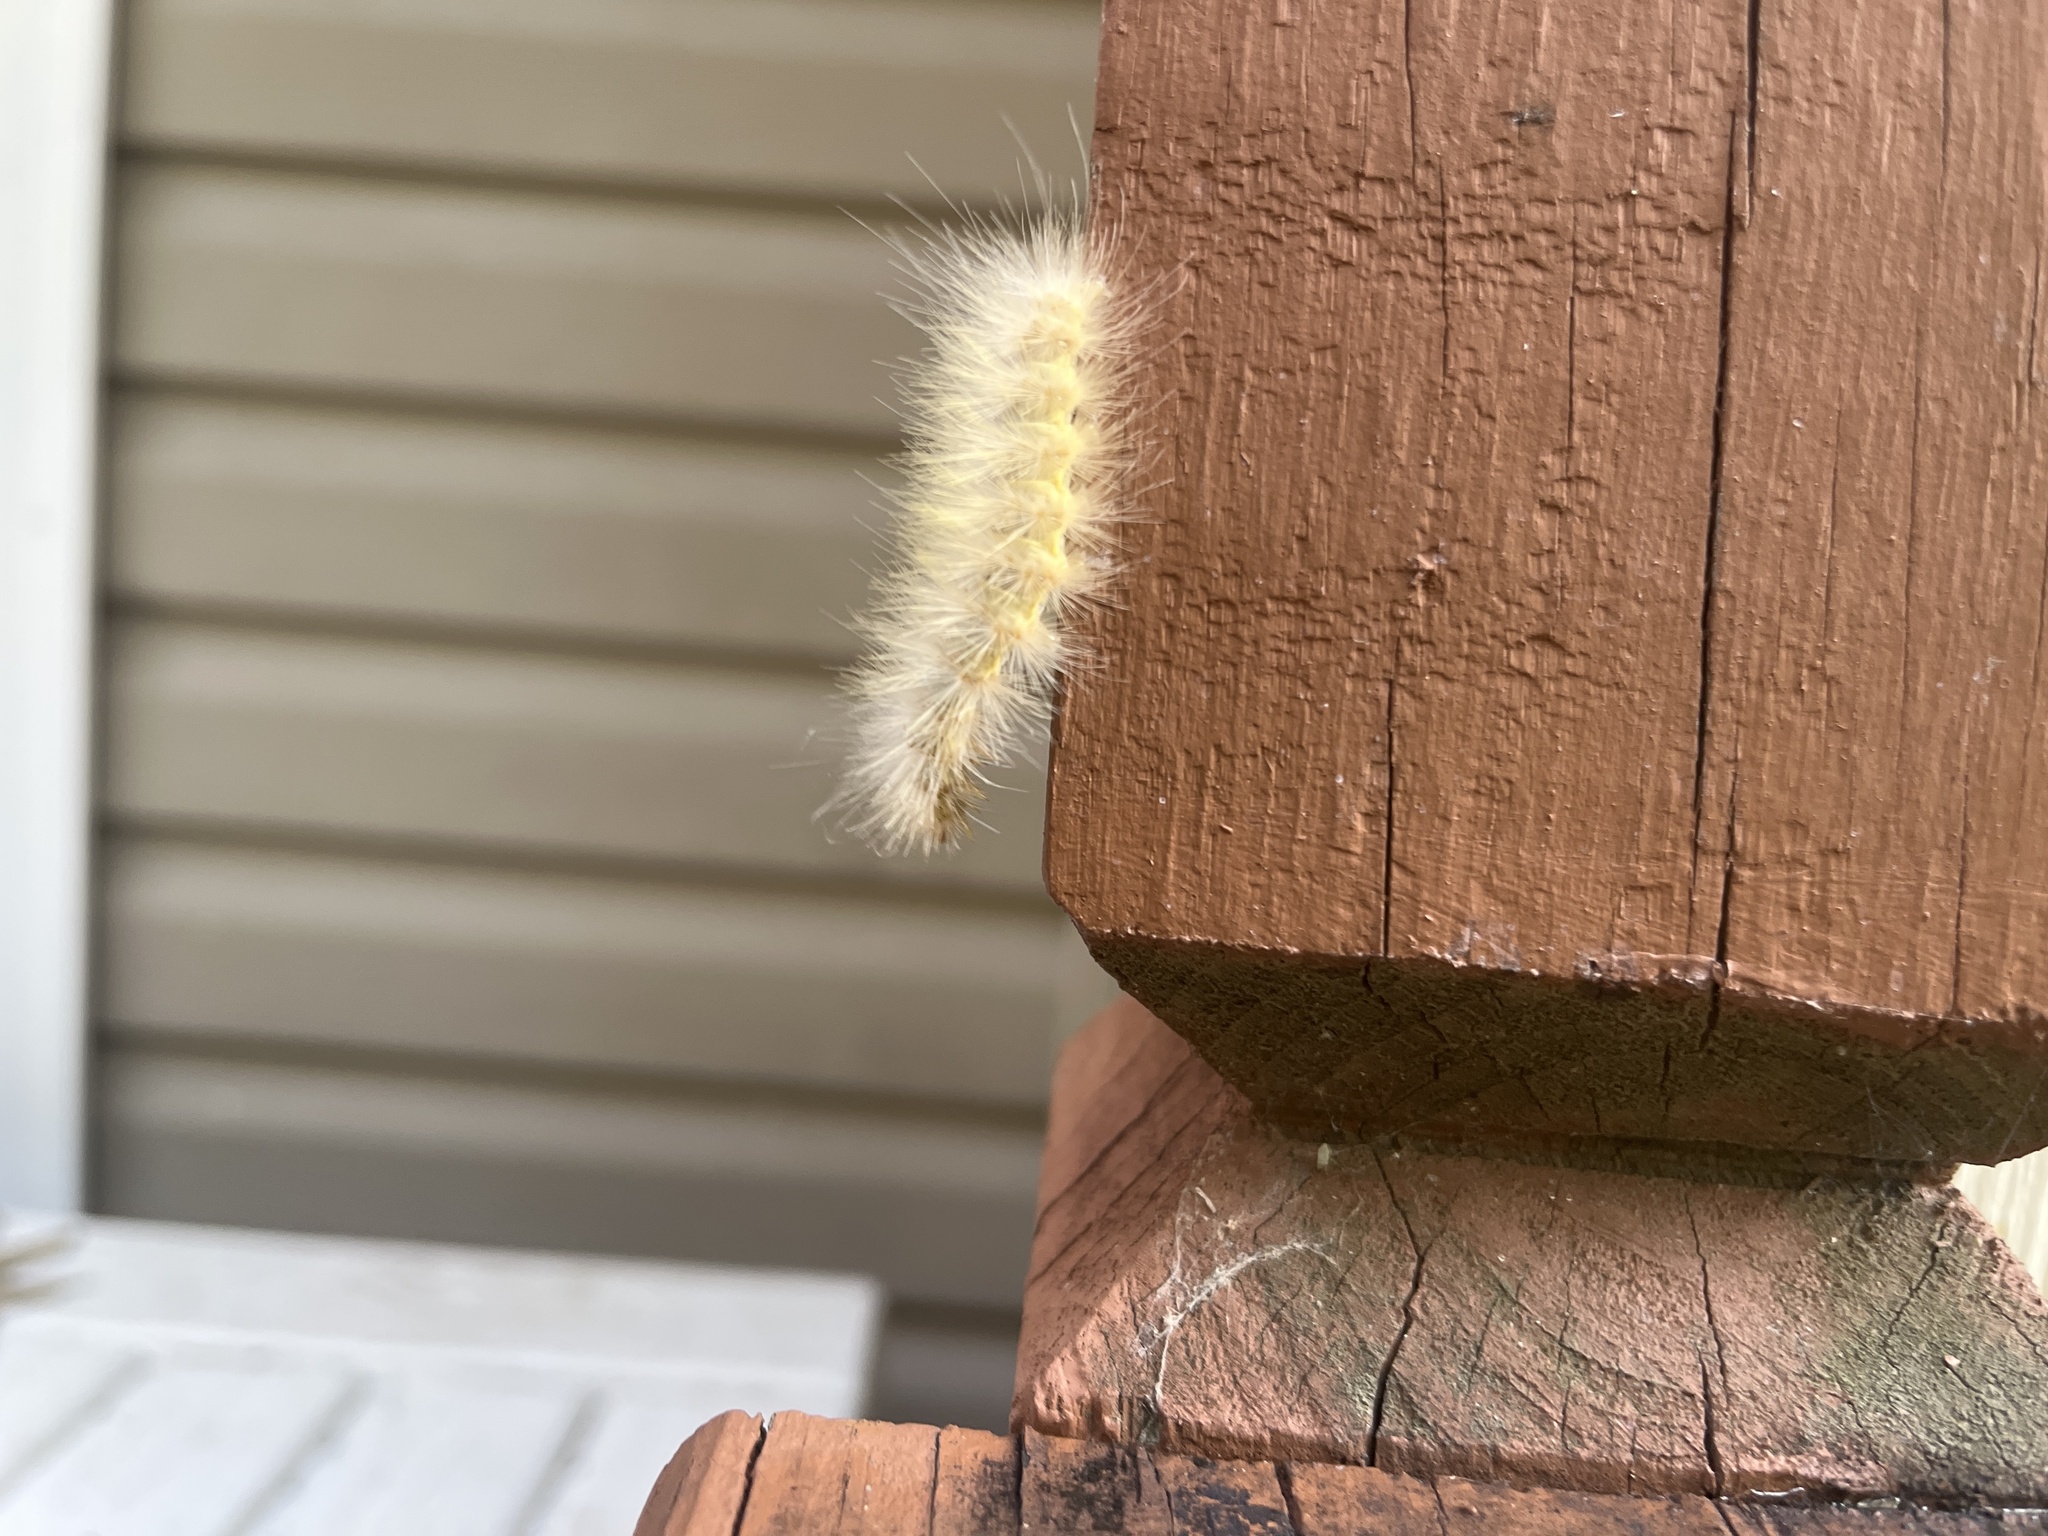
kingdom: Animalia
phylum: Arthropoda
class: Insecta
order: Lepidoptera
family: Erebidae
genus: Spilosoma
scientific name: Spilosoma virginica
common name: Virginia tiger moth
